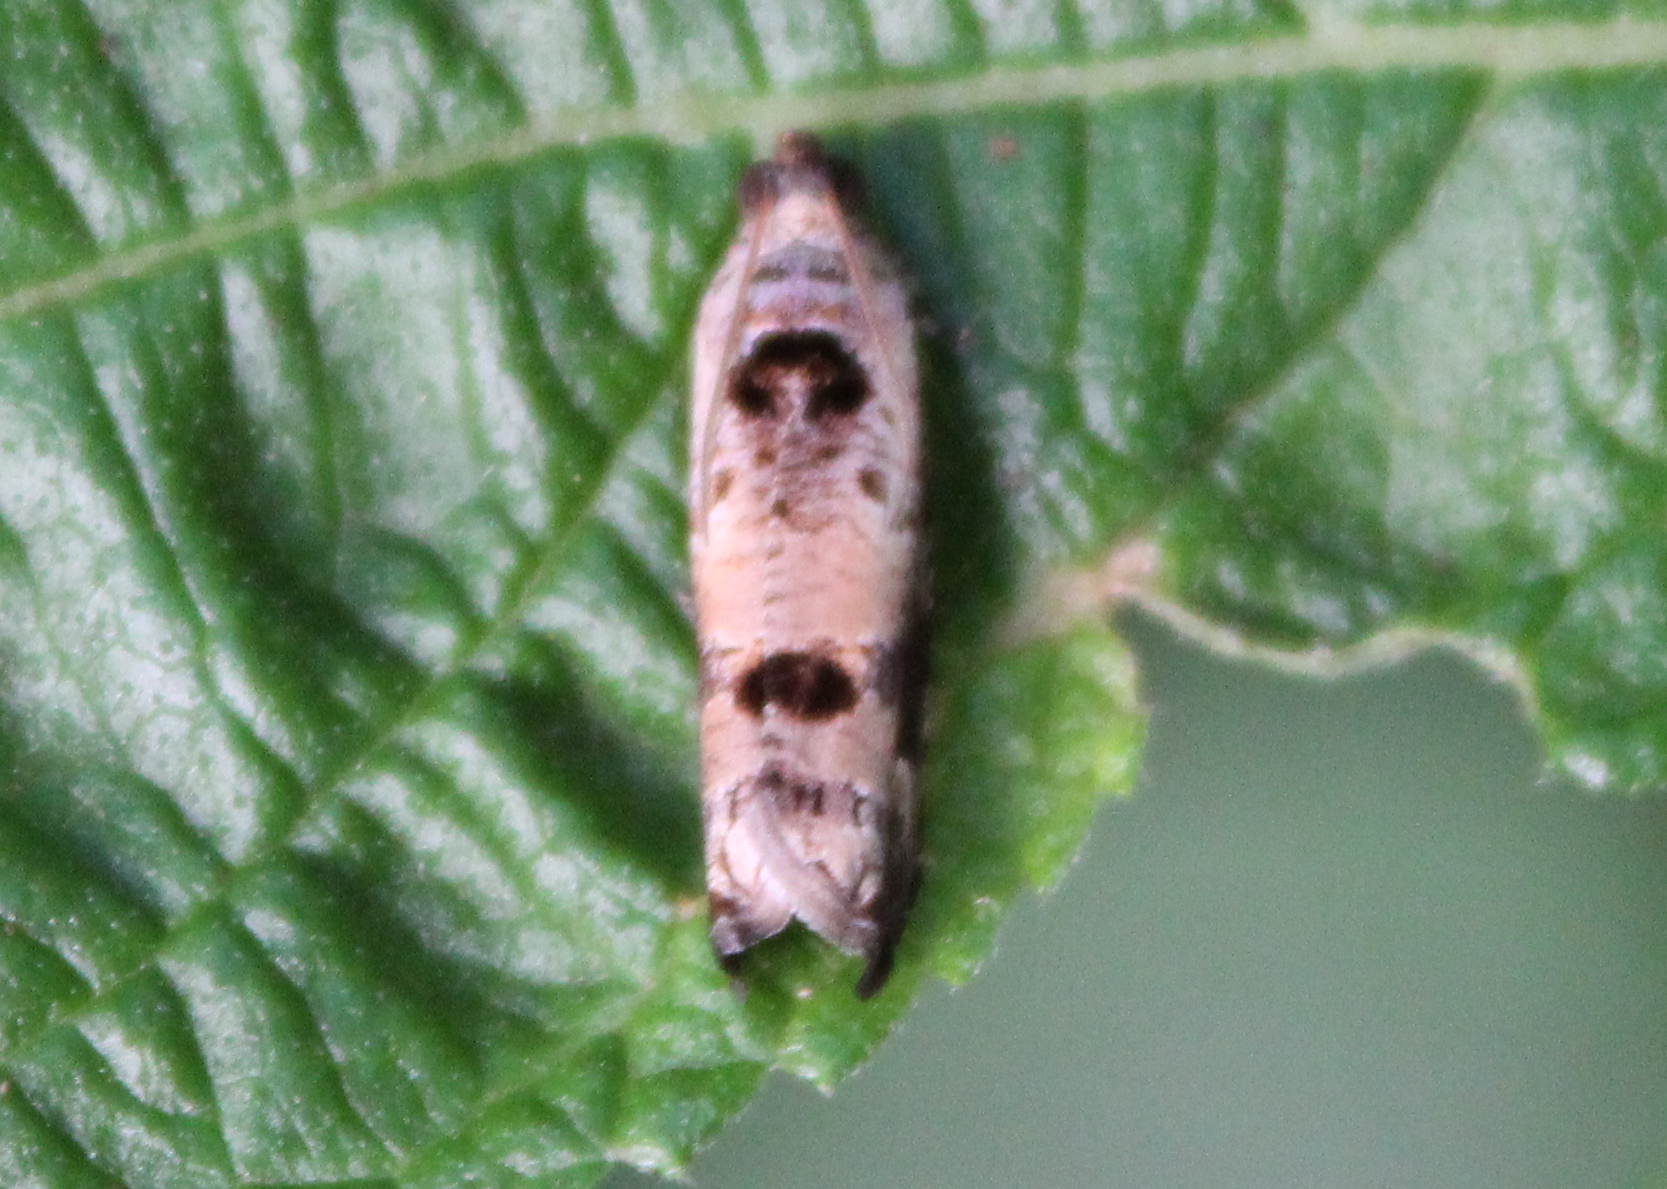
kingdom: Animalia
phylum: Arthropoda
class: Insecta
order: Lepidoptera
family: Tortricidae
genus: Dudua
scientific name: Dudua aprobola
